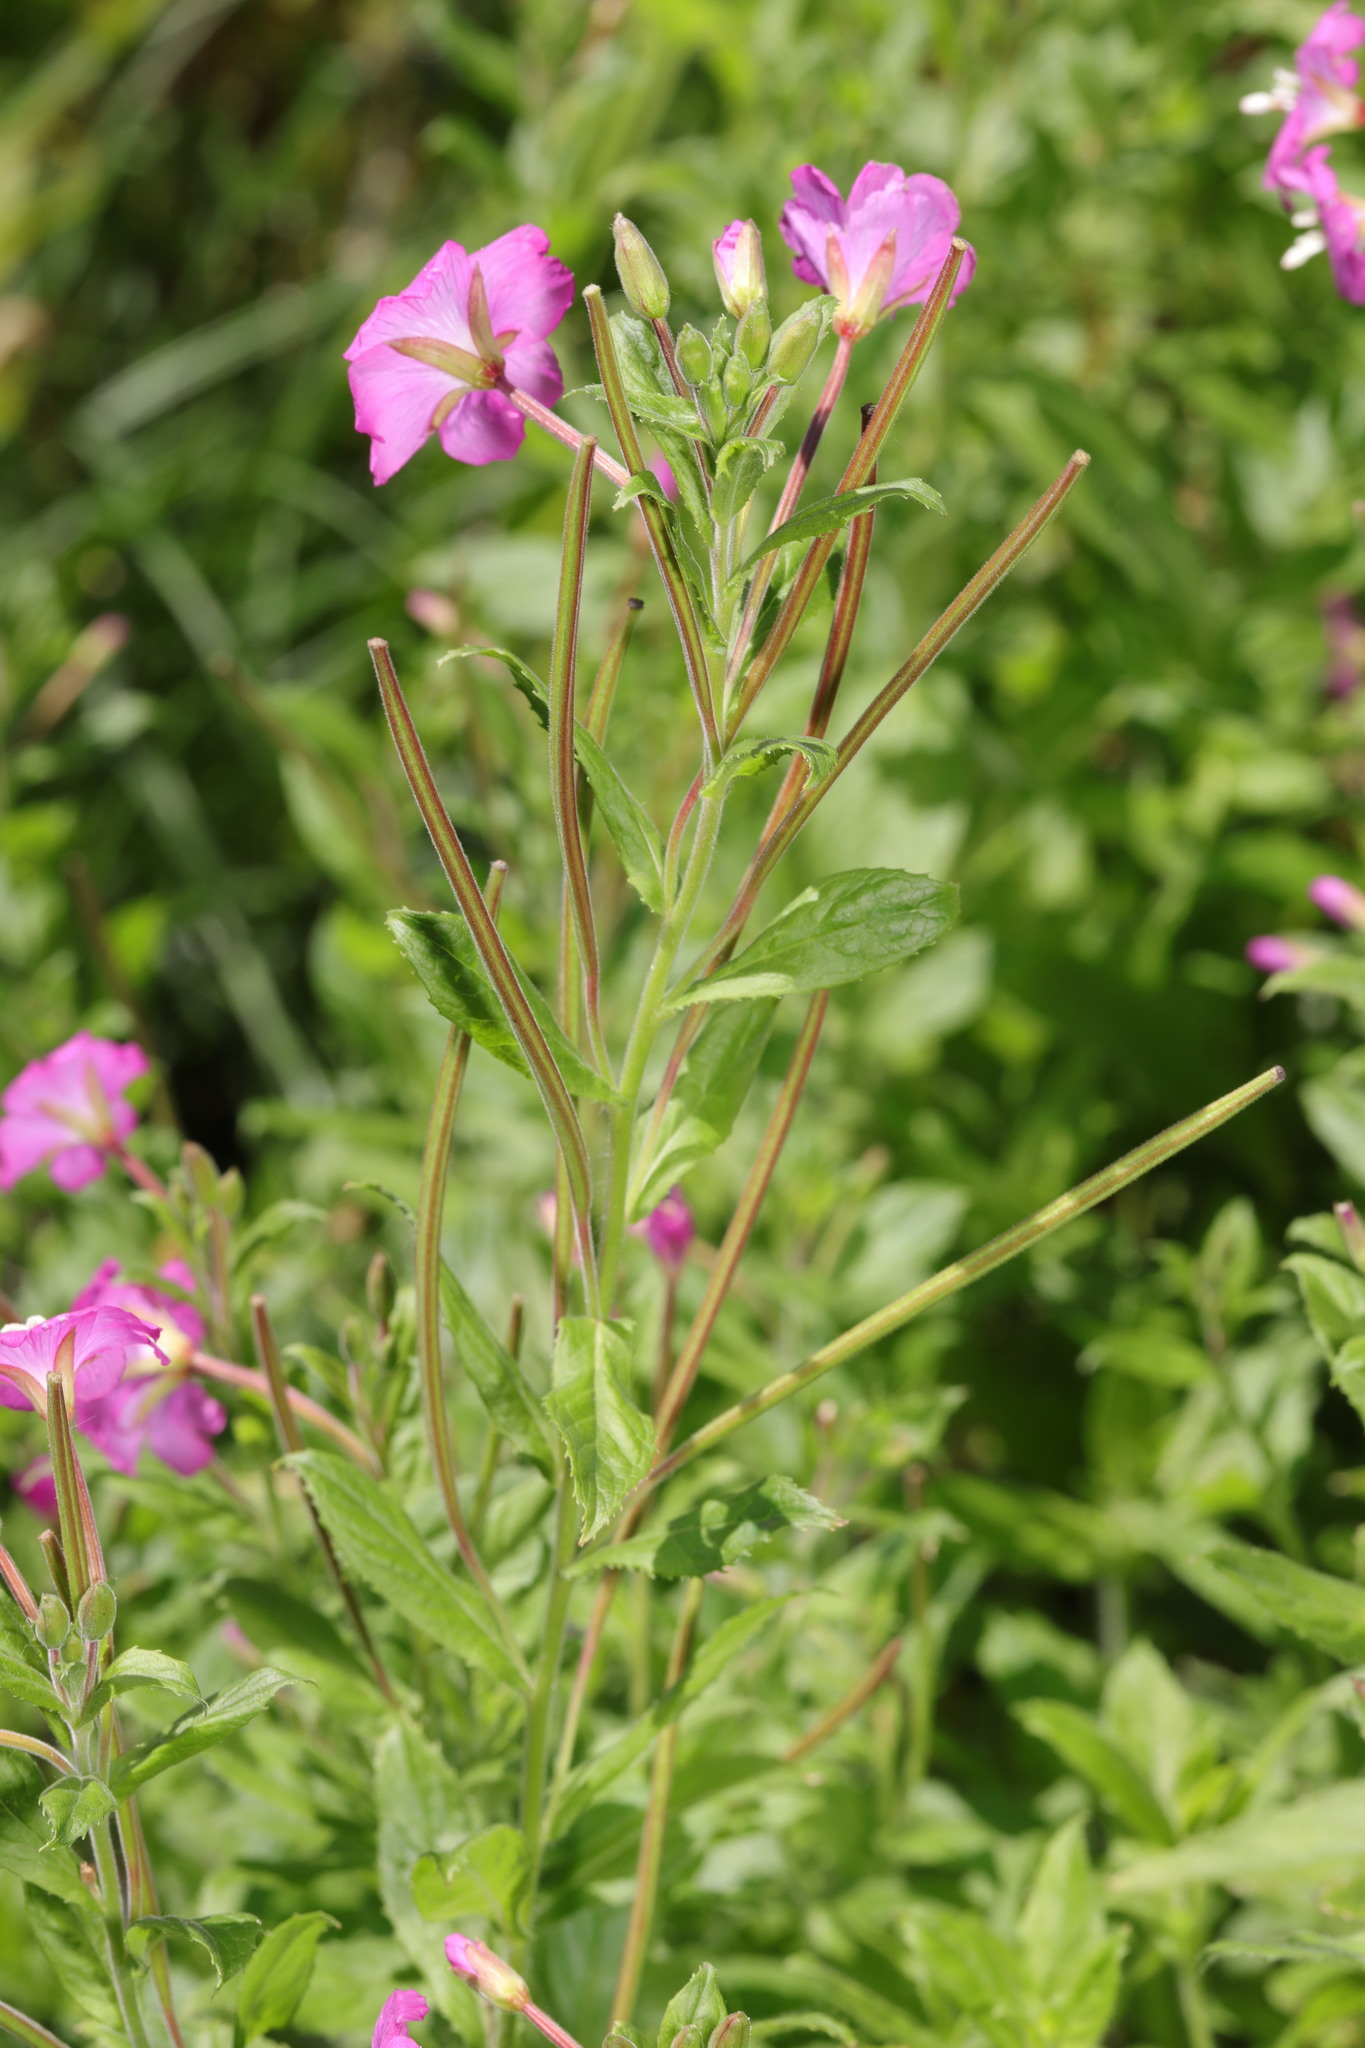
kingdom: Plantae
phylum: Tracheophyta
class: Magnoliopsida
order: Myrtales
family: Onagraceae
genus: Epilobium
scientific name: Epilobium hirsutum
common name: Great willowherb
